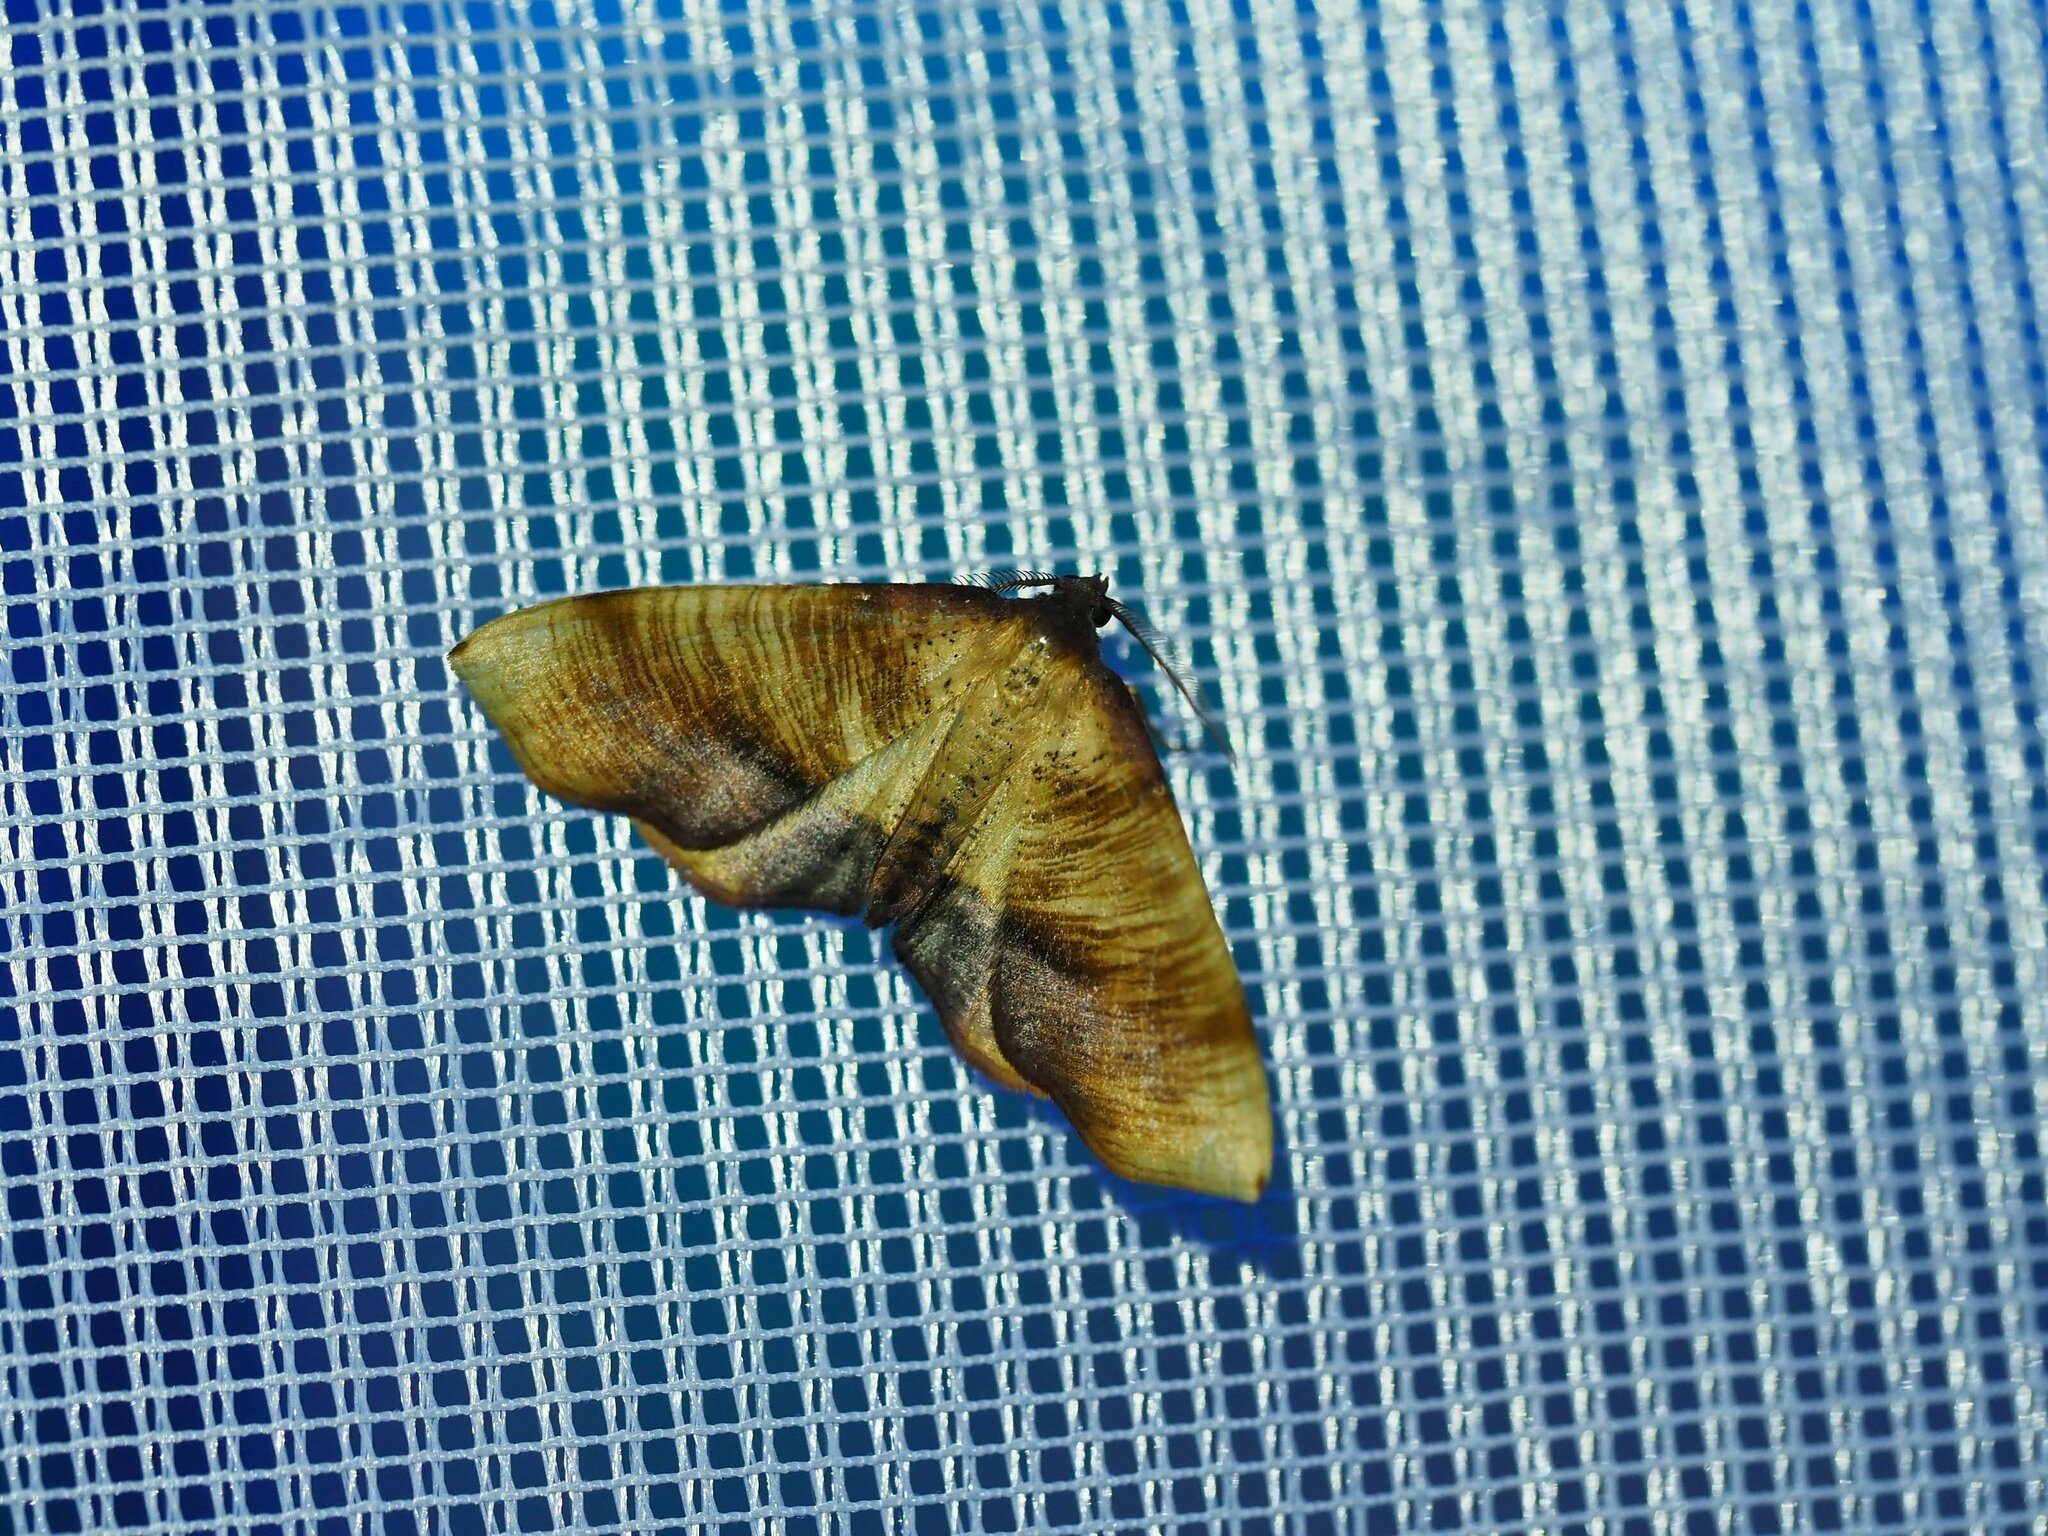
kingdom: Animalia
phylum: Arthropoda
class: Insecta
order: Lepidoptera
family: Geometridae
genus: Plagodis
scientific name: Plagodis dolabraria
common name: Scorched wing
